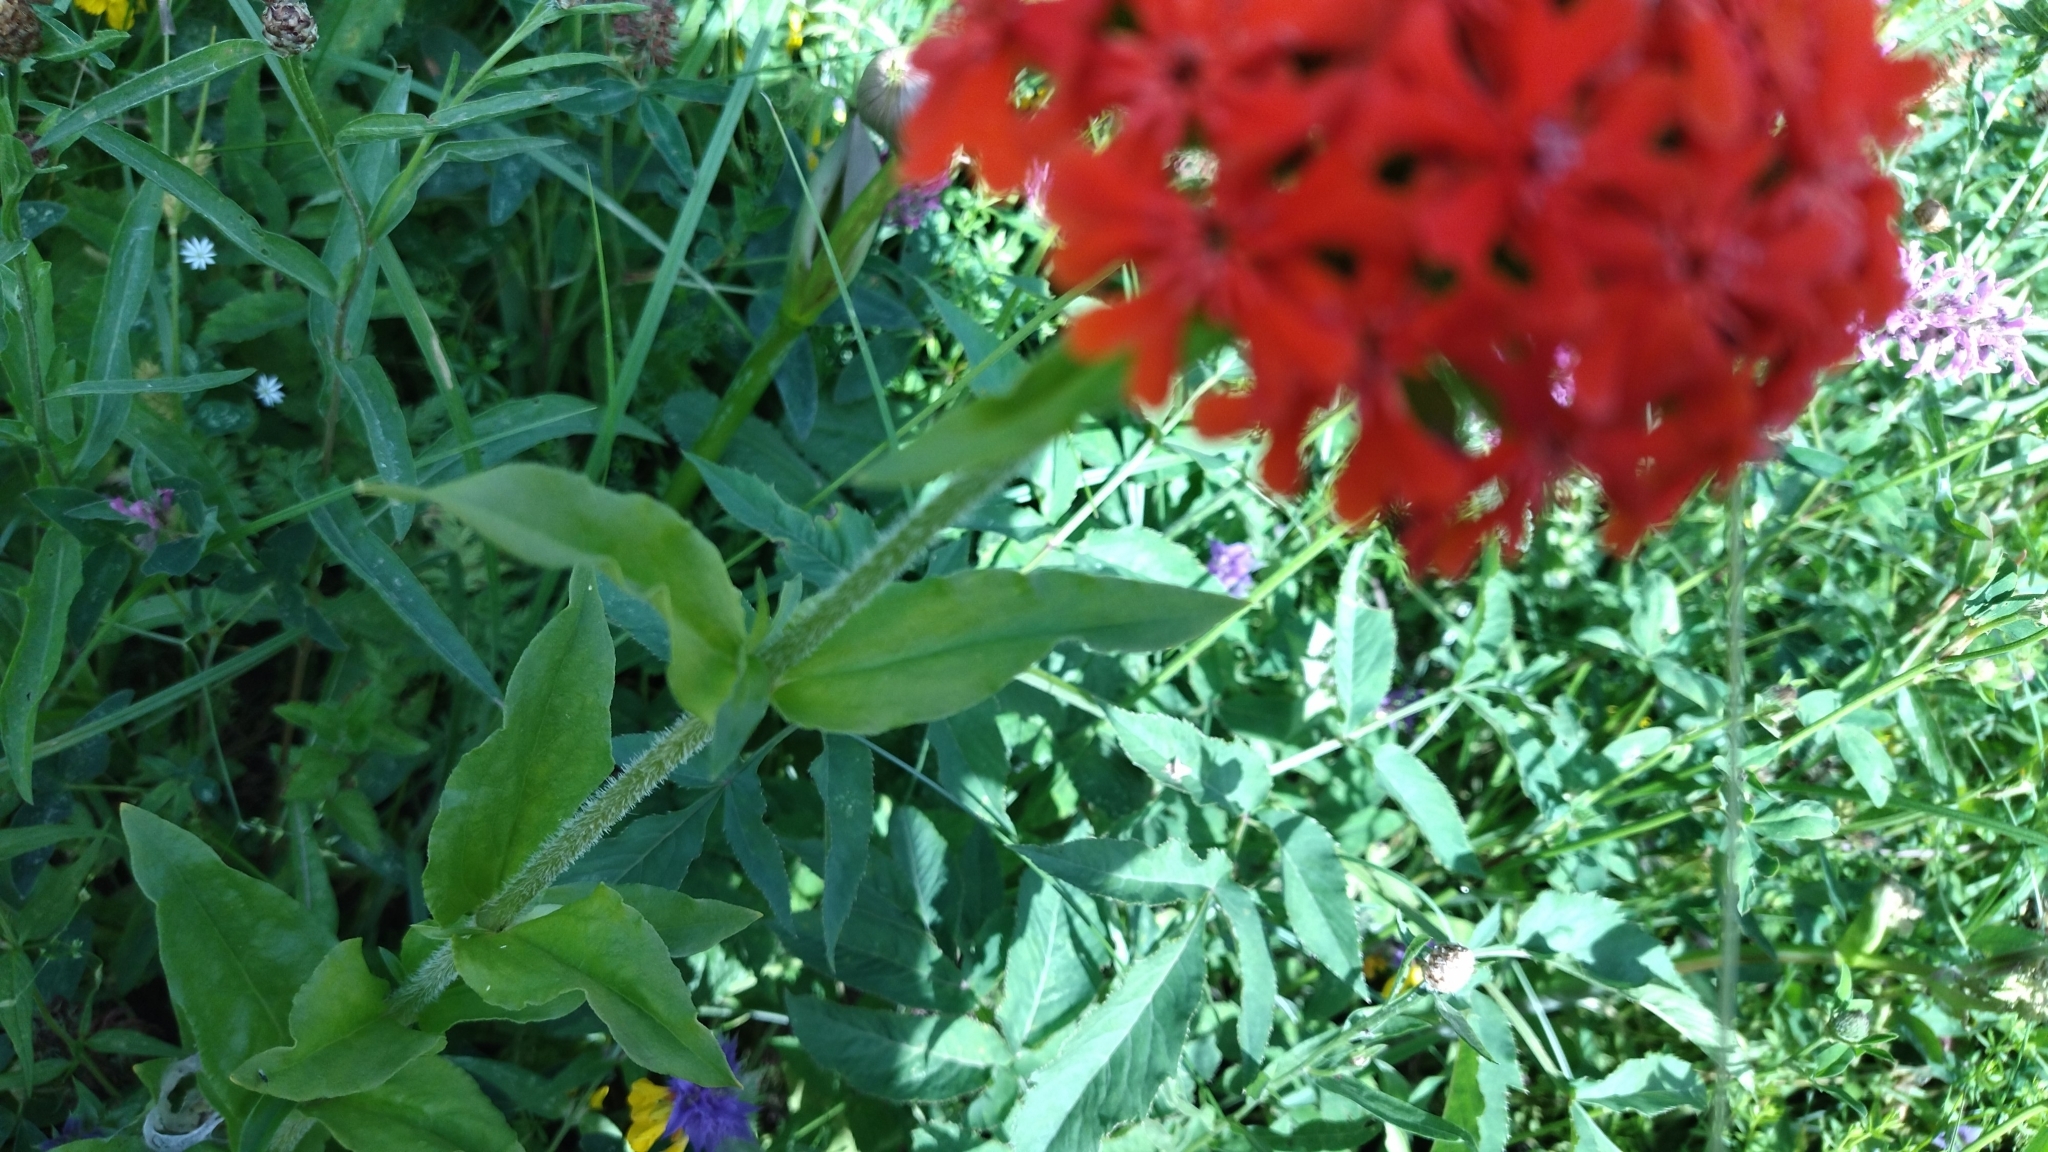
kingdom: Plantae
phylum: Tracheophyta
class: Magnoliopsida
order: Caryophyllales
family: Caryophyllaceae
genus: Silene
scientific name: Silene chalcedonica
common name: Maltese-cross
